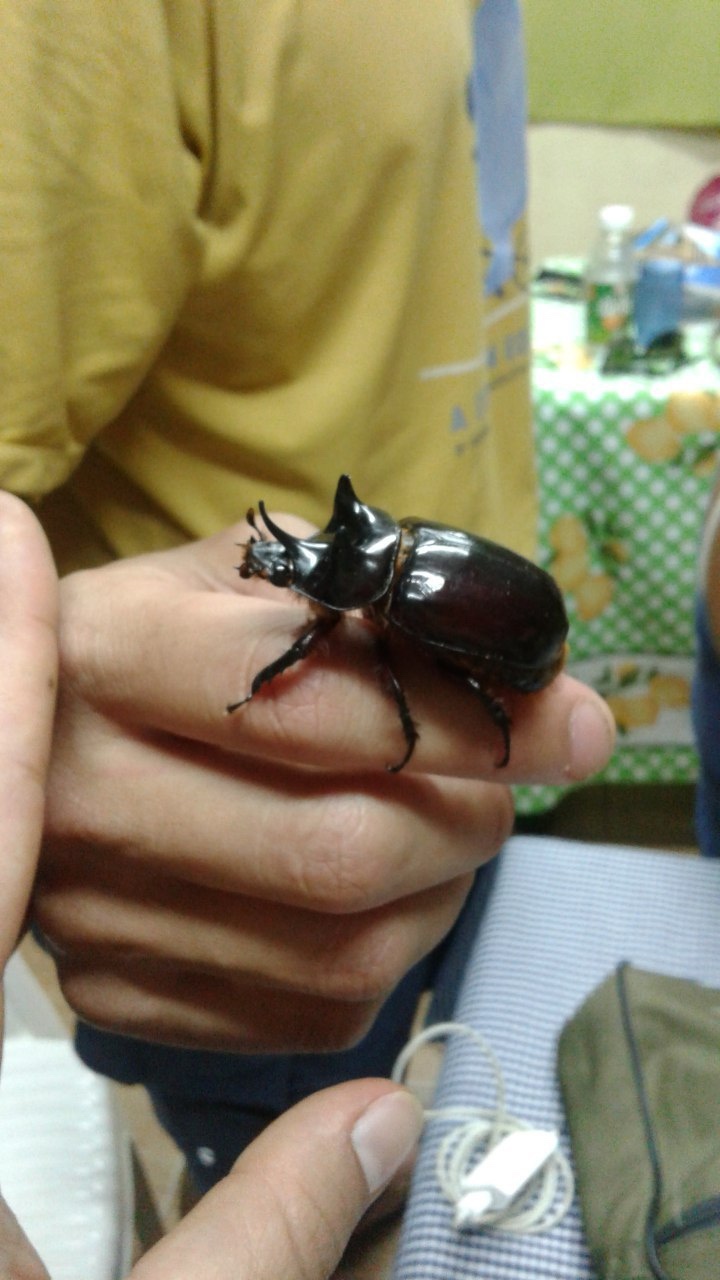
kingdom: Animalia
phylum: Arthropoda
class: Insecta
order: Coleoptera
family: Scarabaeidae
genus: Strategus
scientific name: Strategus validus
